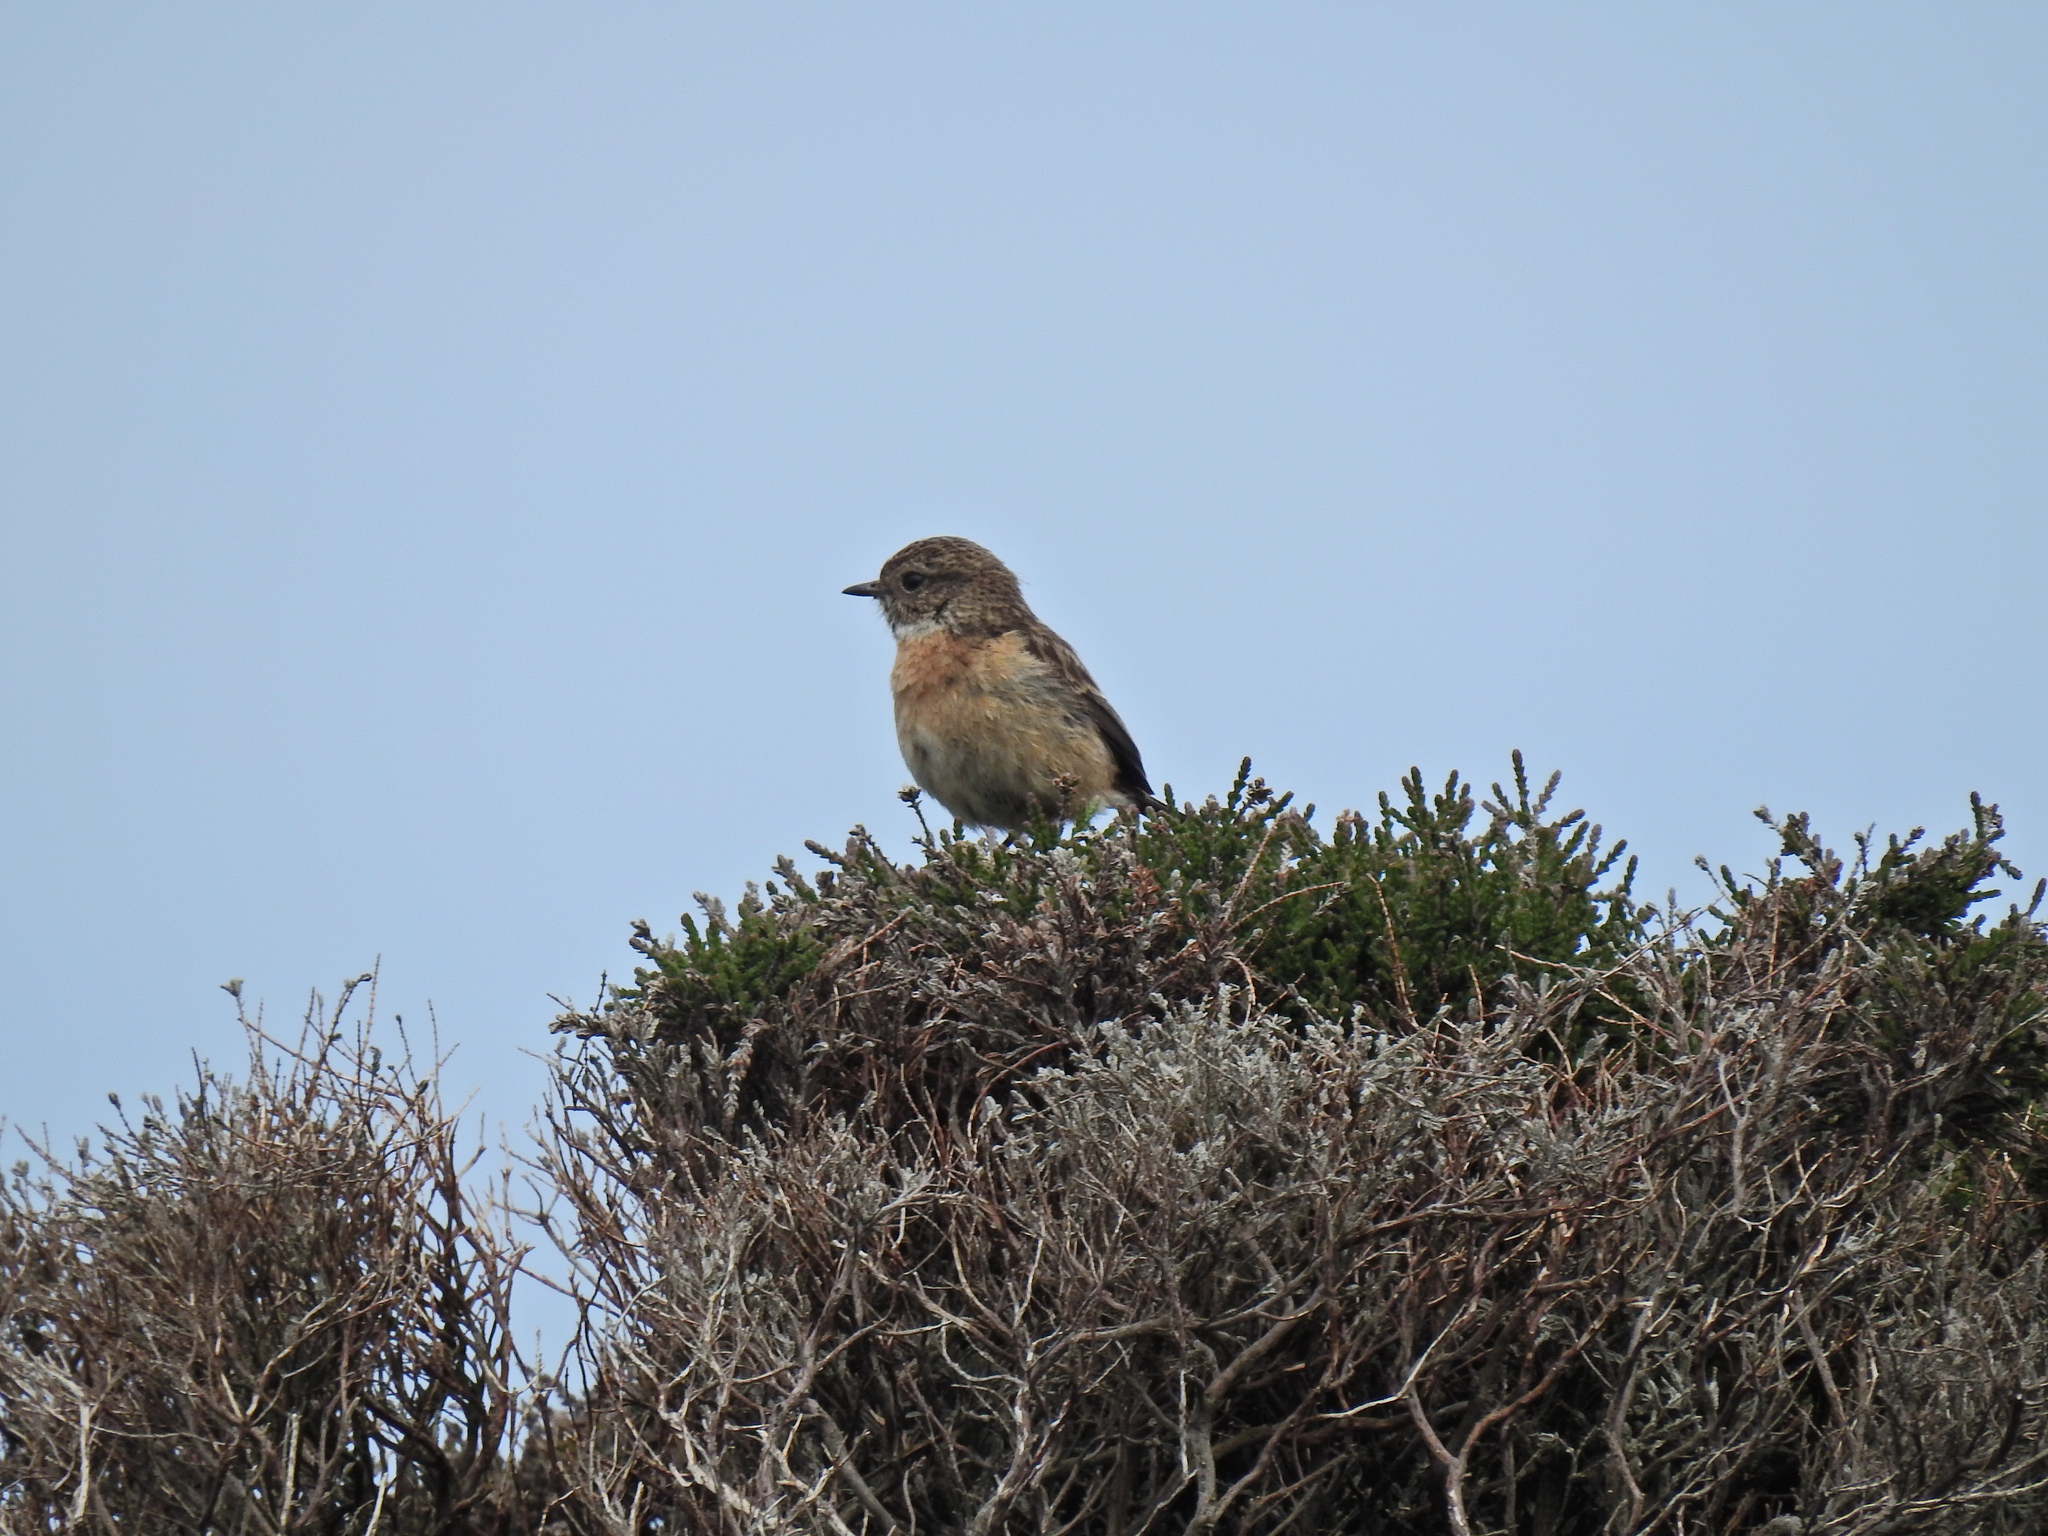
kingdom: Animalia
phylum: Chordata
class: Aves
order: Passeriformes
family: Muscicapidae
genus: Saxicola
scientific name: Saxicola rubicola
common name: European stonechat
